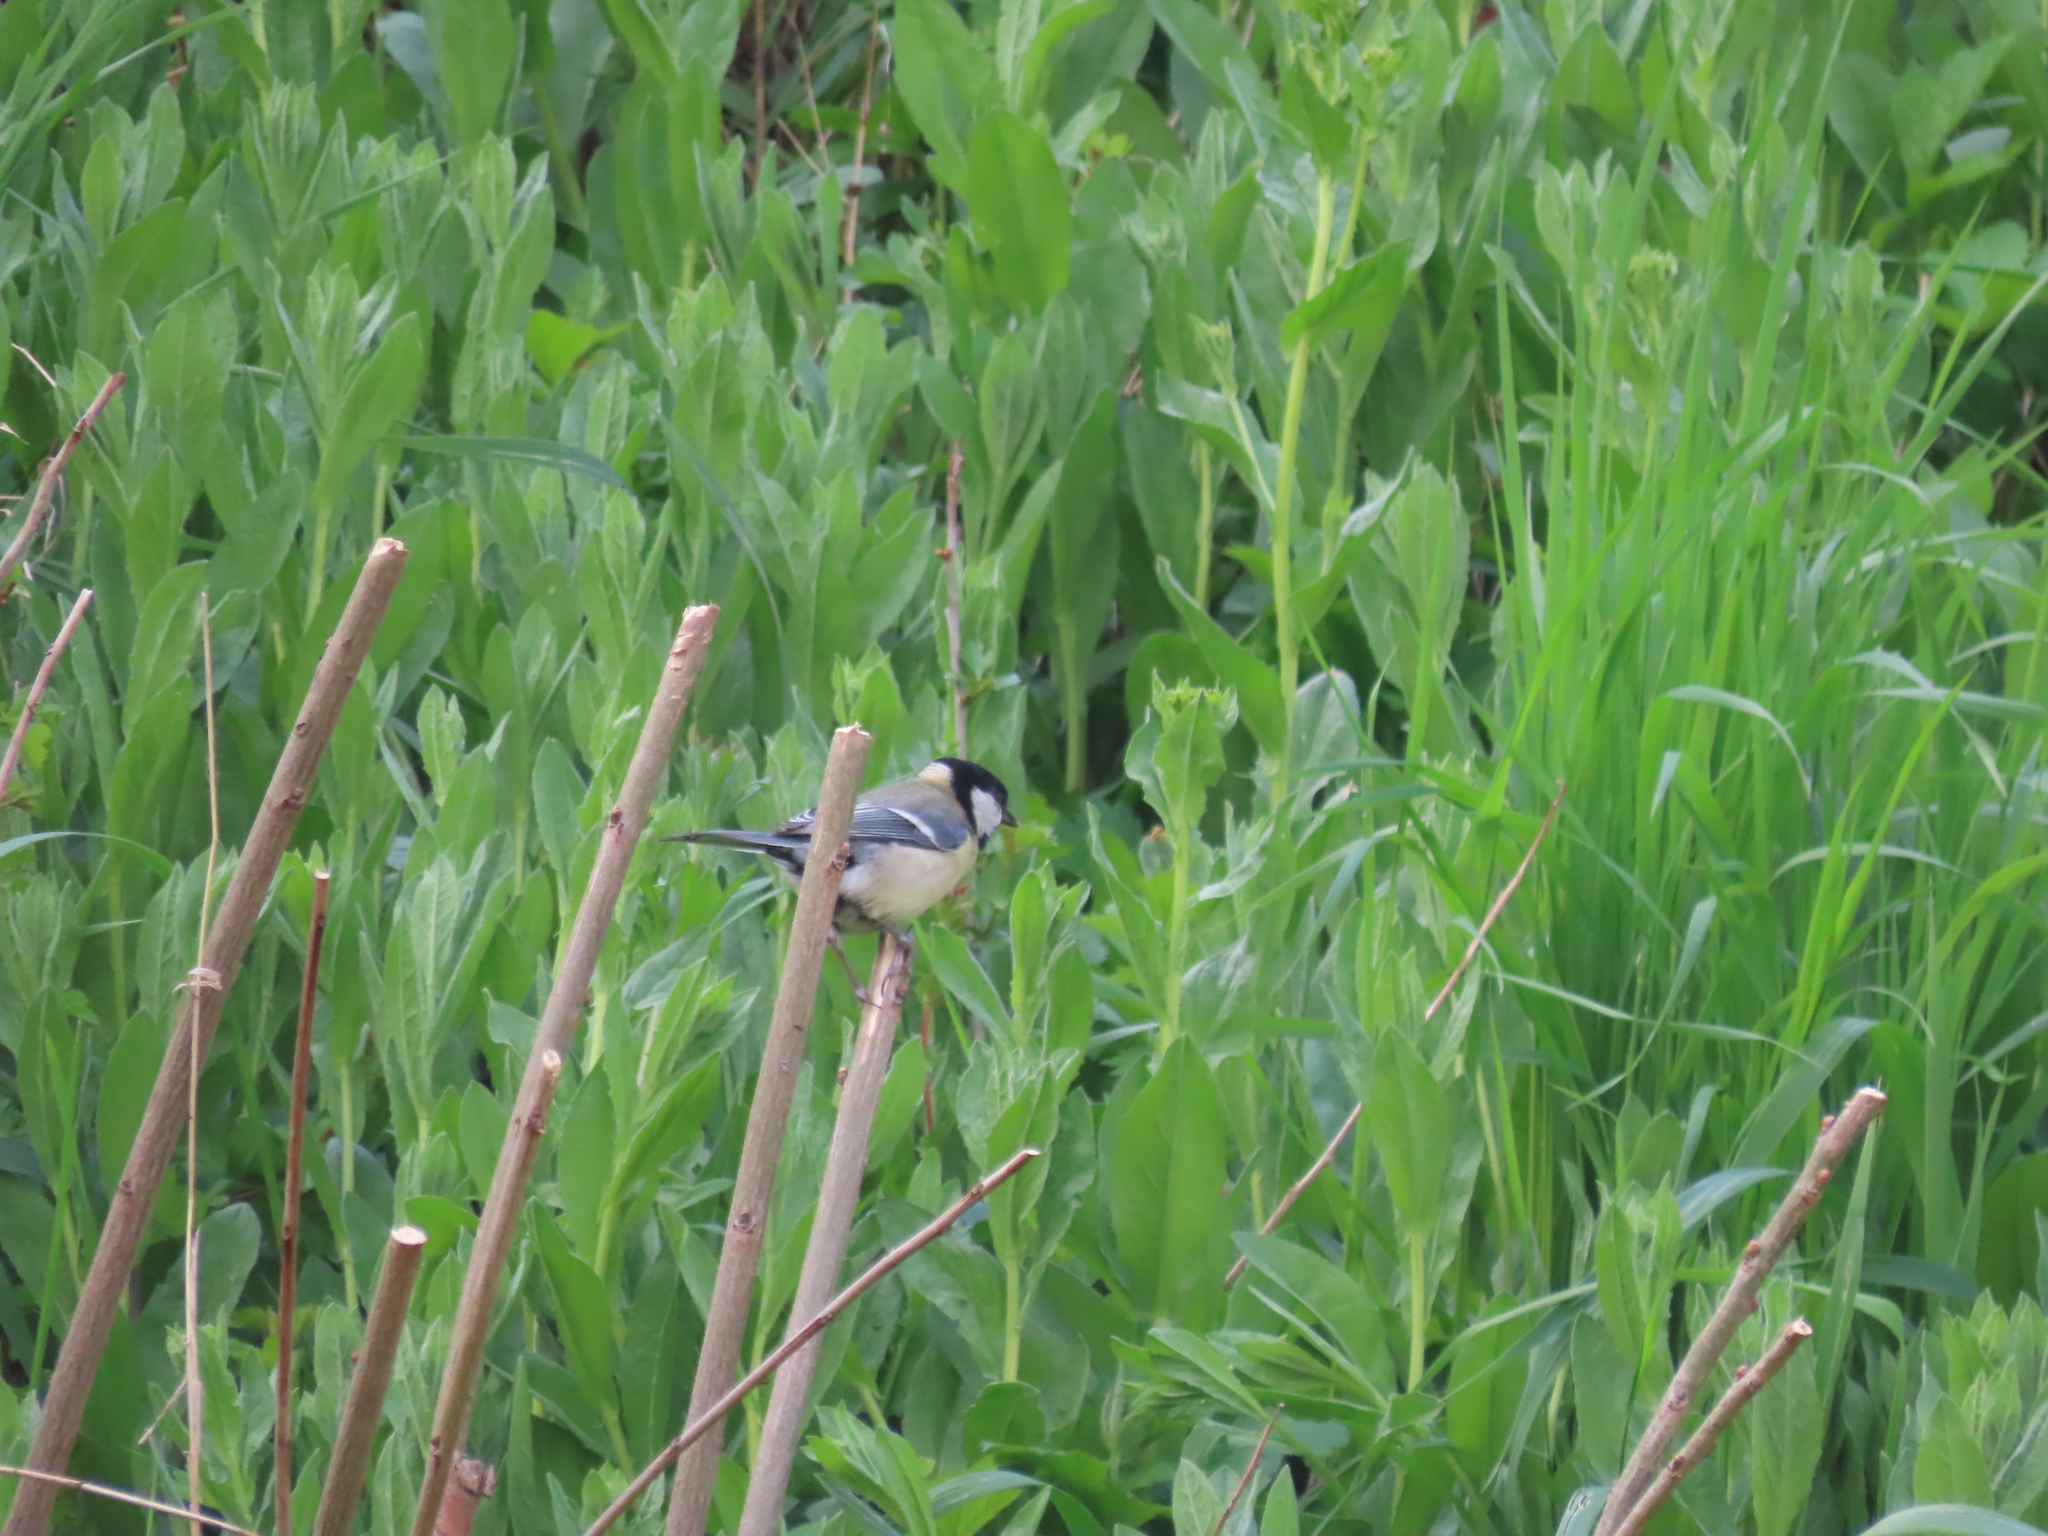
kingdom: Animalia
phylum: Chordata
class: Aves
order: Passeriformes
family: Paridae
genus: Parus
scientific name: Parus major
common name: Great tit
